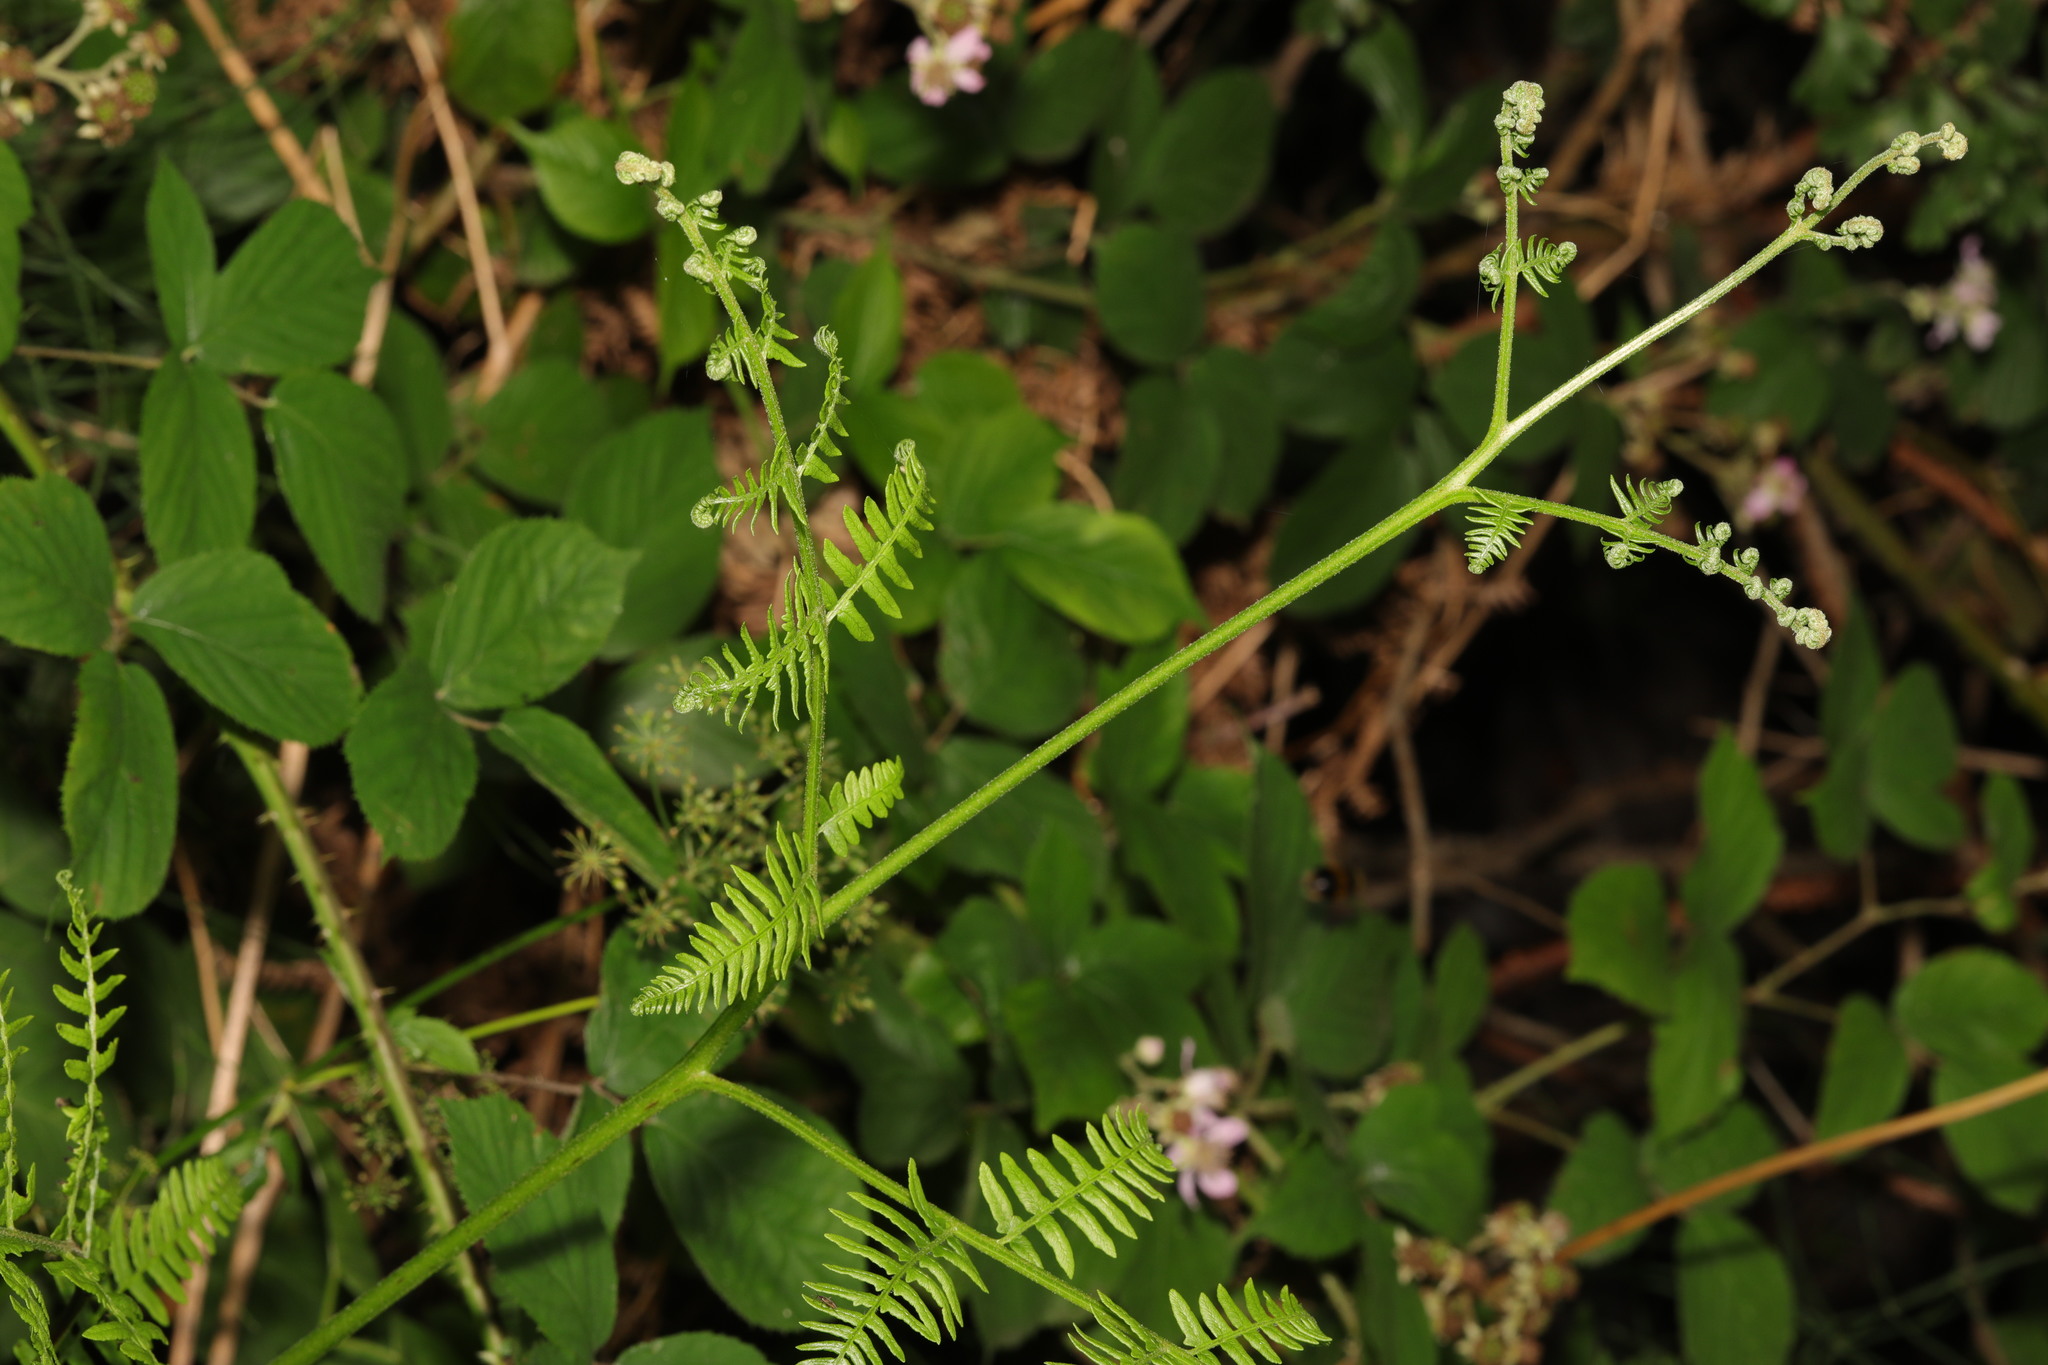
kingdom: Plantae
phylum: Tracheophyta
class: Polypodiopsida
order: Polypodiales
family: Dennstaedtiaceae
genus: Pteridium
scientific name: Pteridium aquilinum
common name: Bracken
